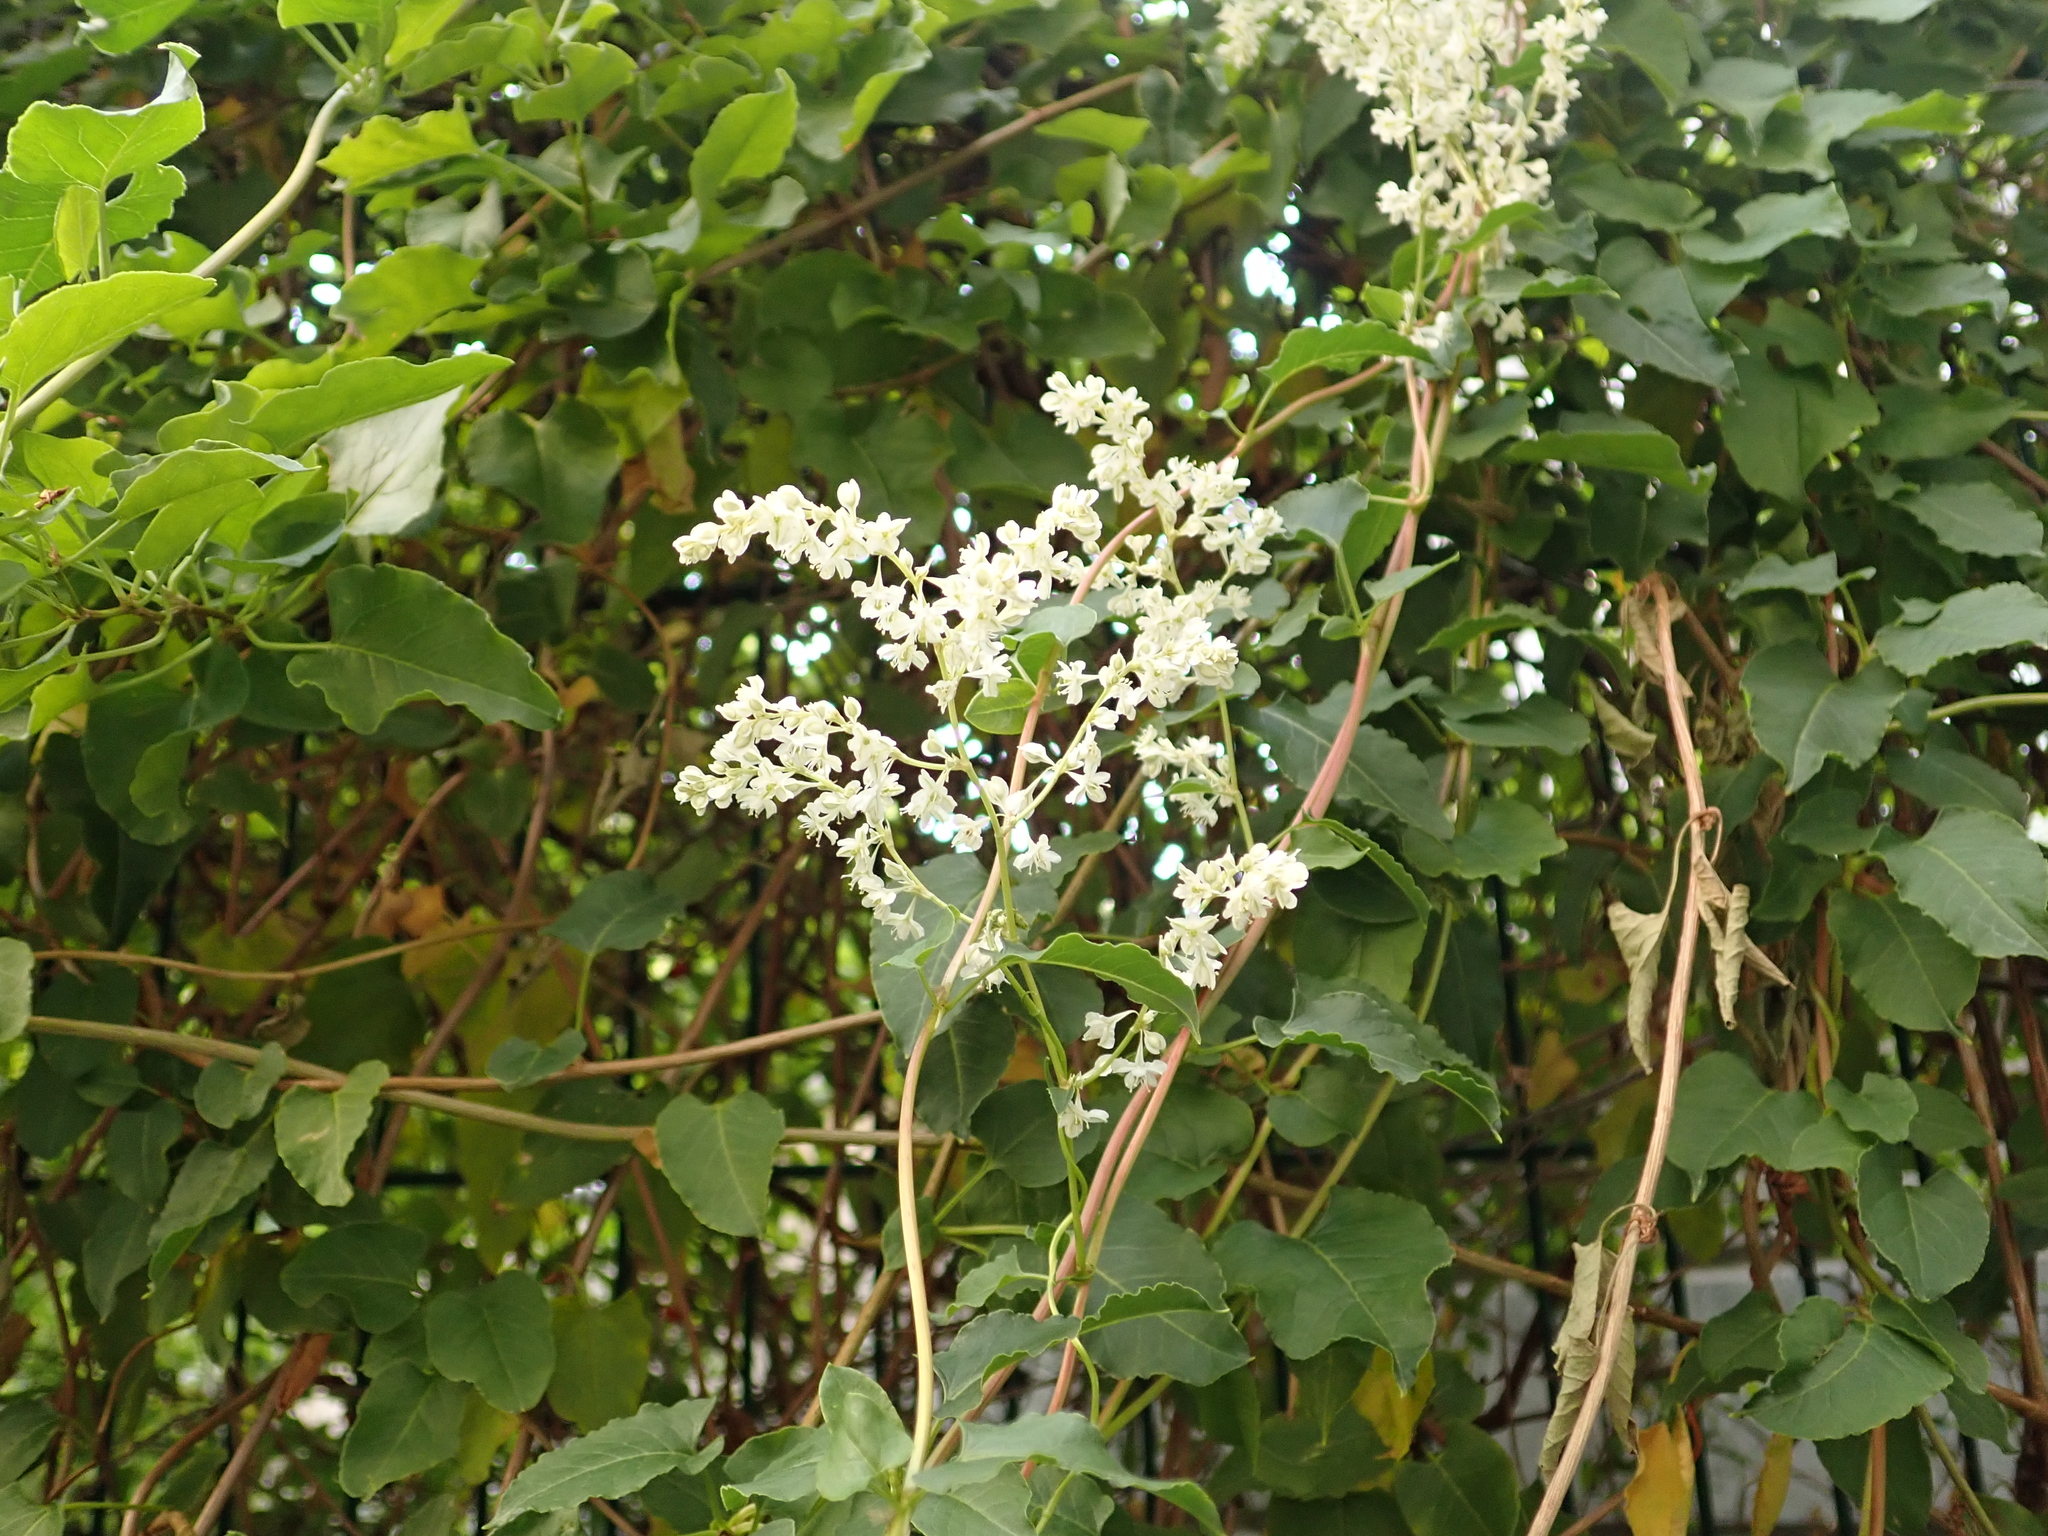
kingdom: Plantae
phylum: Tracheophyta
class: Magnoliopsida
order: Caryophyllales
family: Polygonaceae
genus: Fallopia
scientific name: Fallopia baldschuanica
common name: Russian-vine
